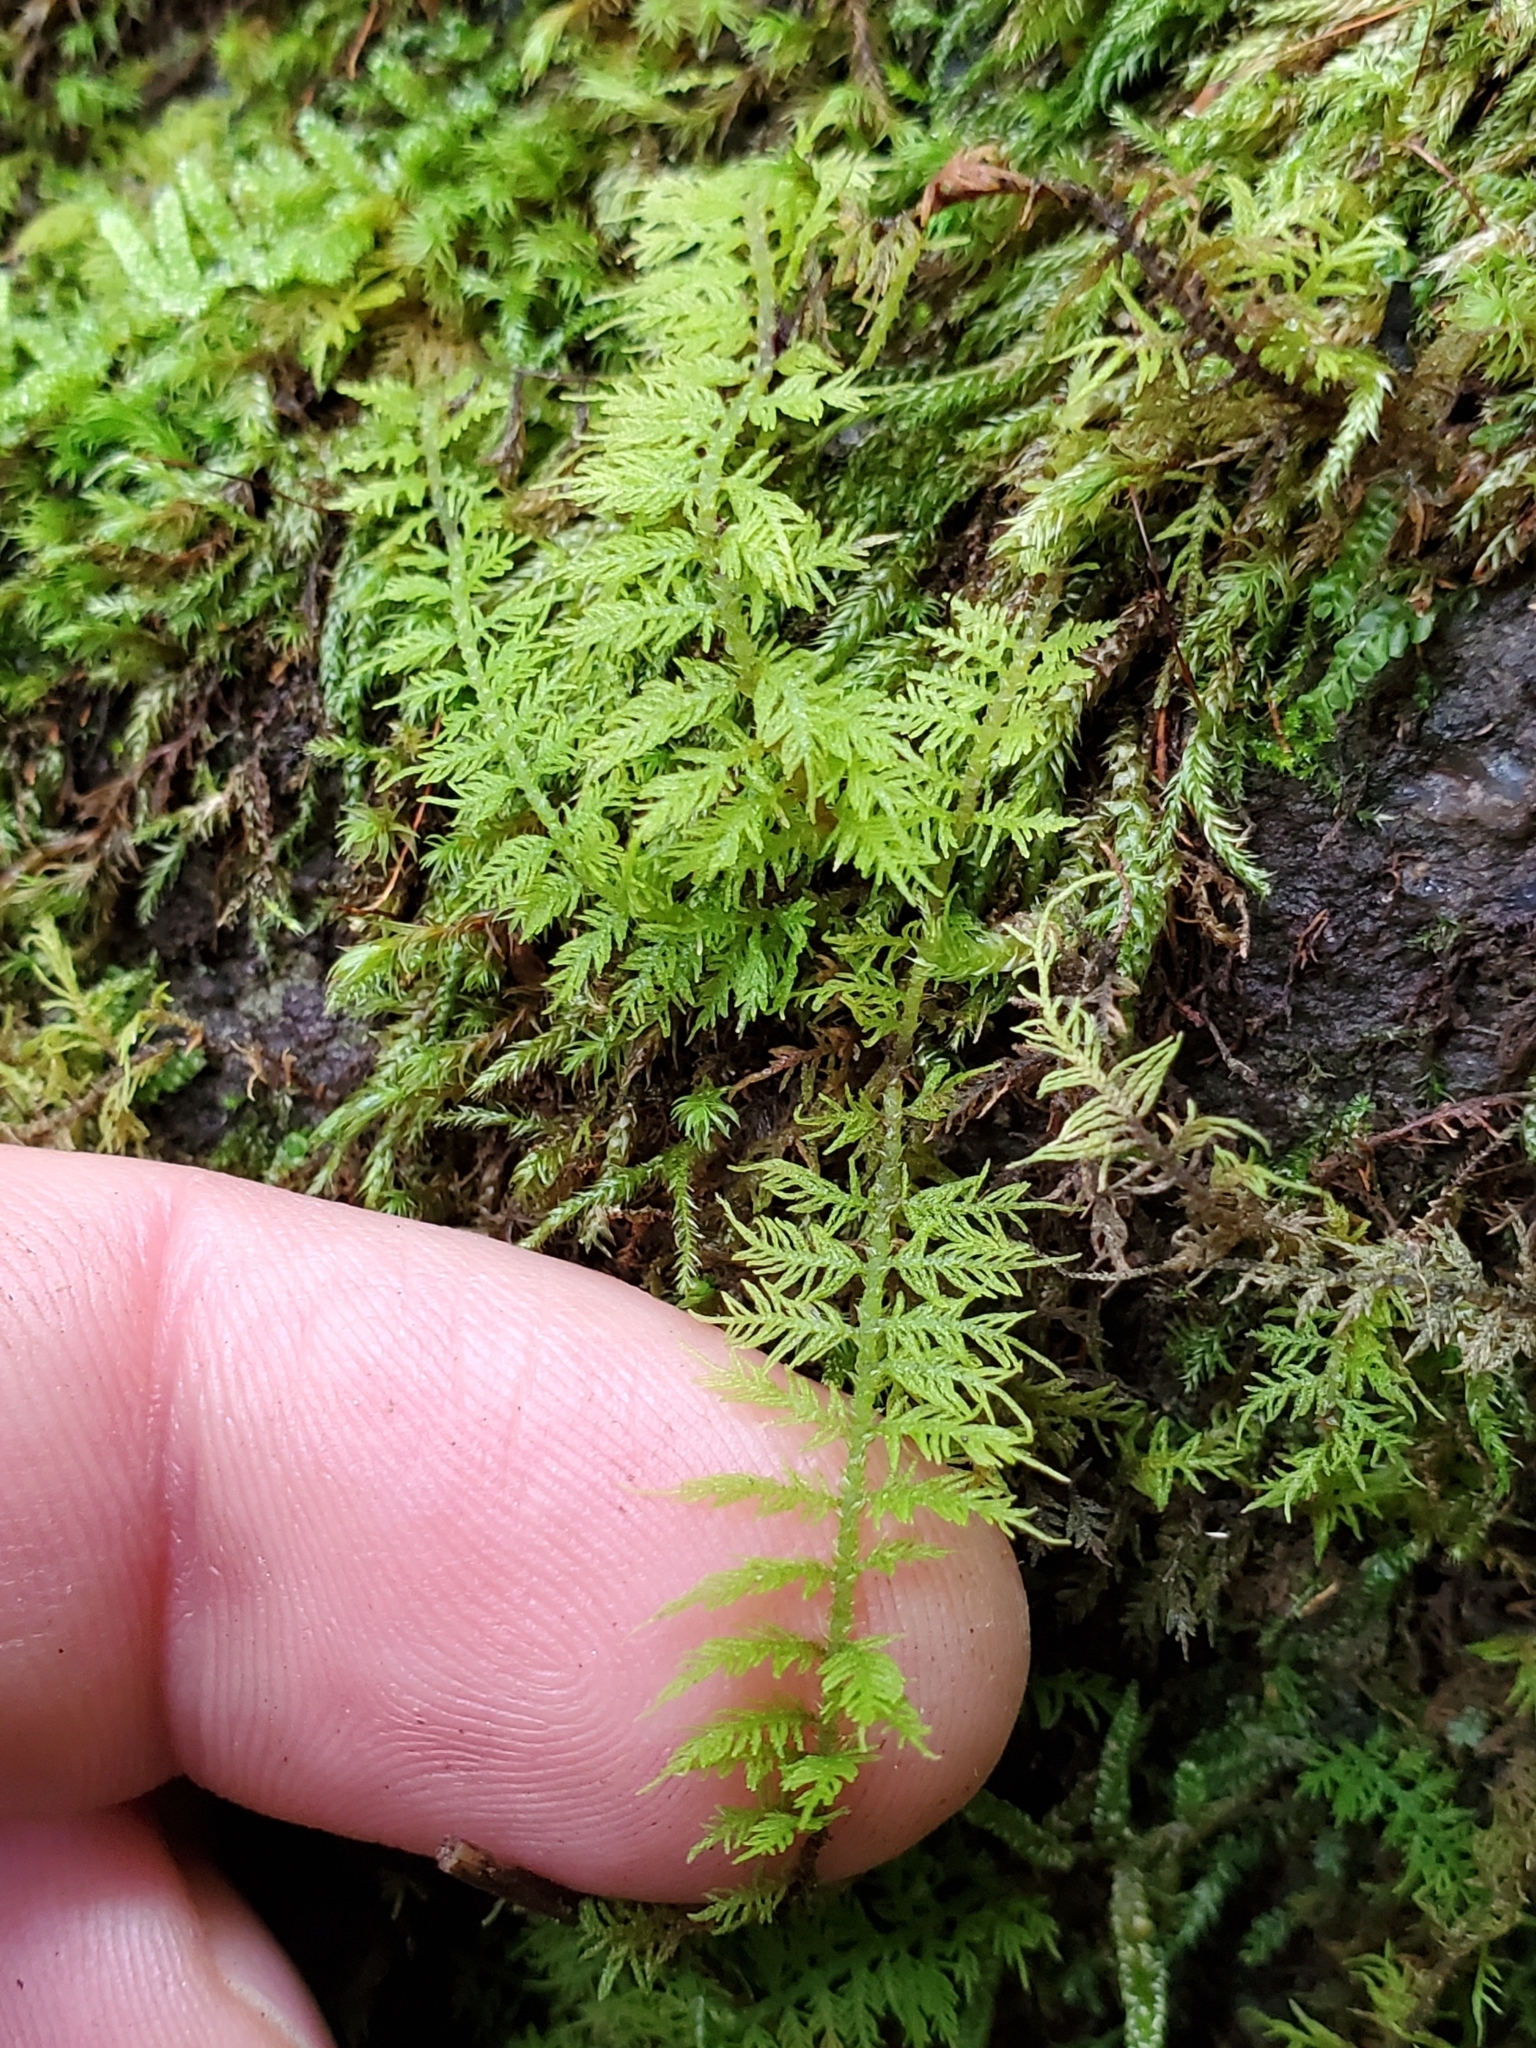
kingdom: Plantae
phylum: Bryophyta
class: Bryopsida
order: Hypnales
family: Thuidiaceae
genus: Thuidium
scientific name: Thuidium delicatulum
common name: Delicate fern moss
